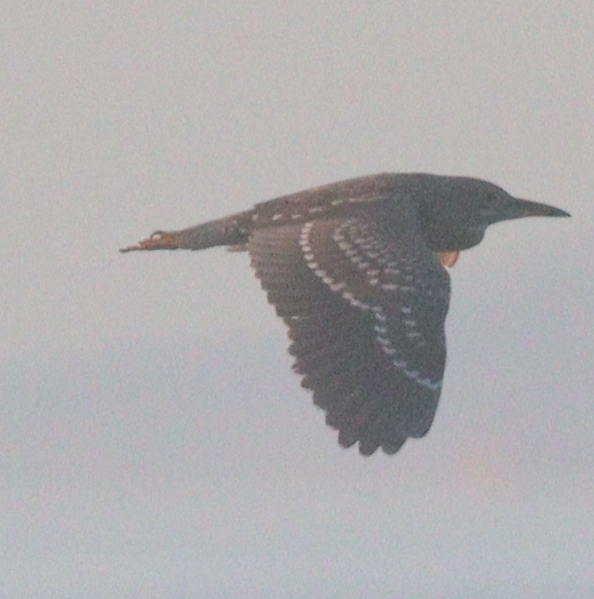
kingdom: Animalia
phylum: Chordata
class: Aves
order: Pelecaniformes
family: Ardeidae
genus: Nycticorax
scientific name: Nycticorax nycticorax
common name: Black-crowned night heron
